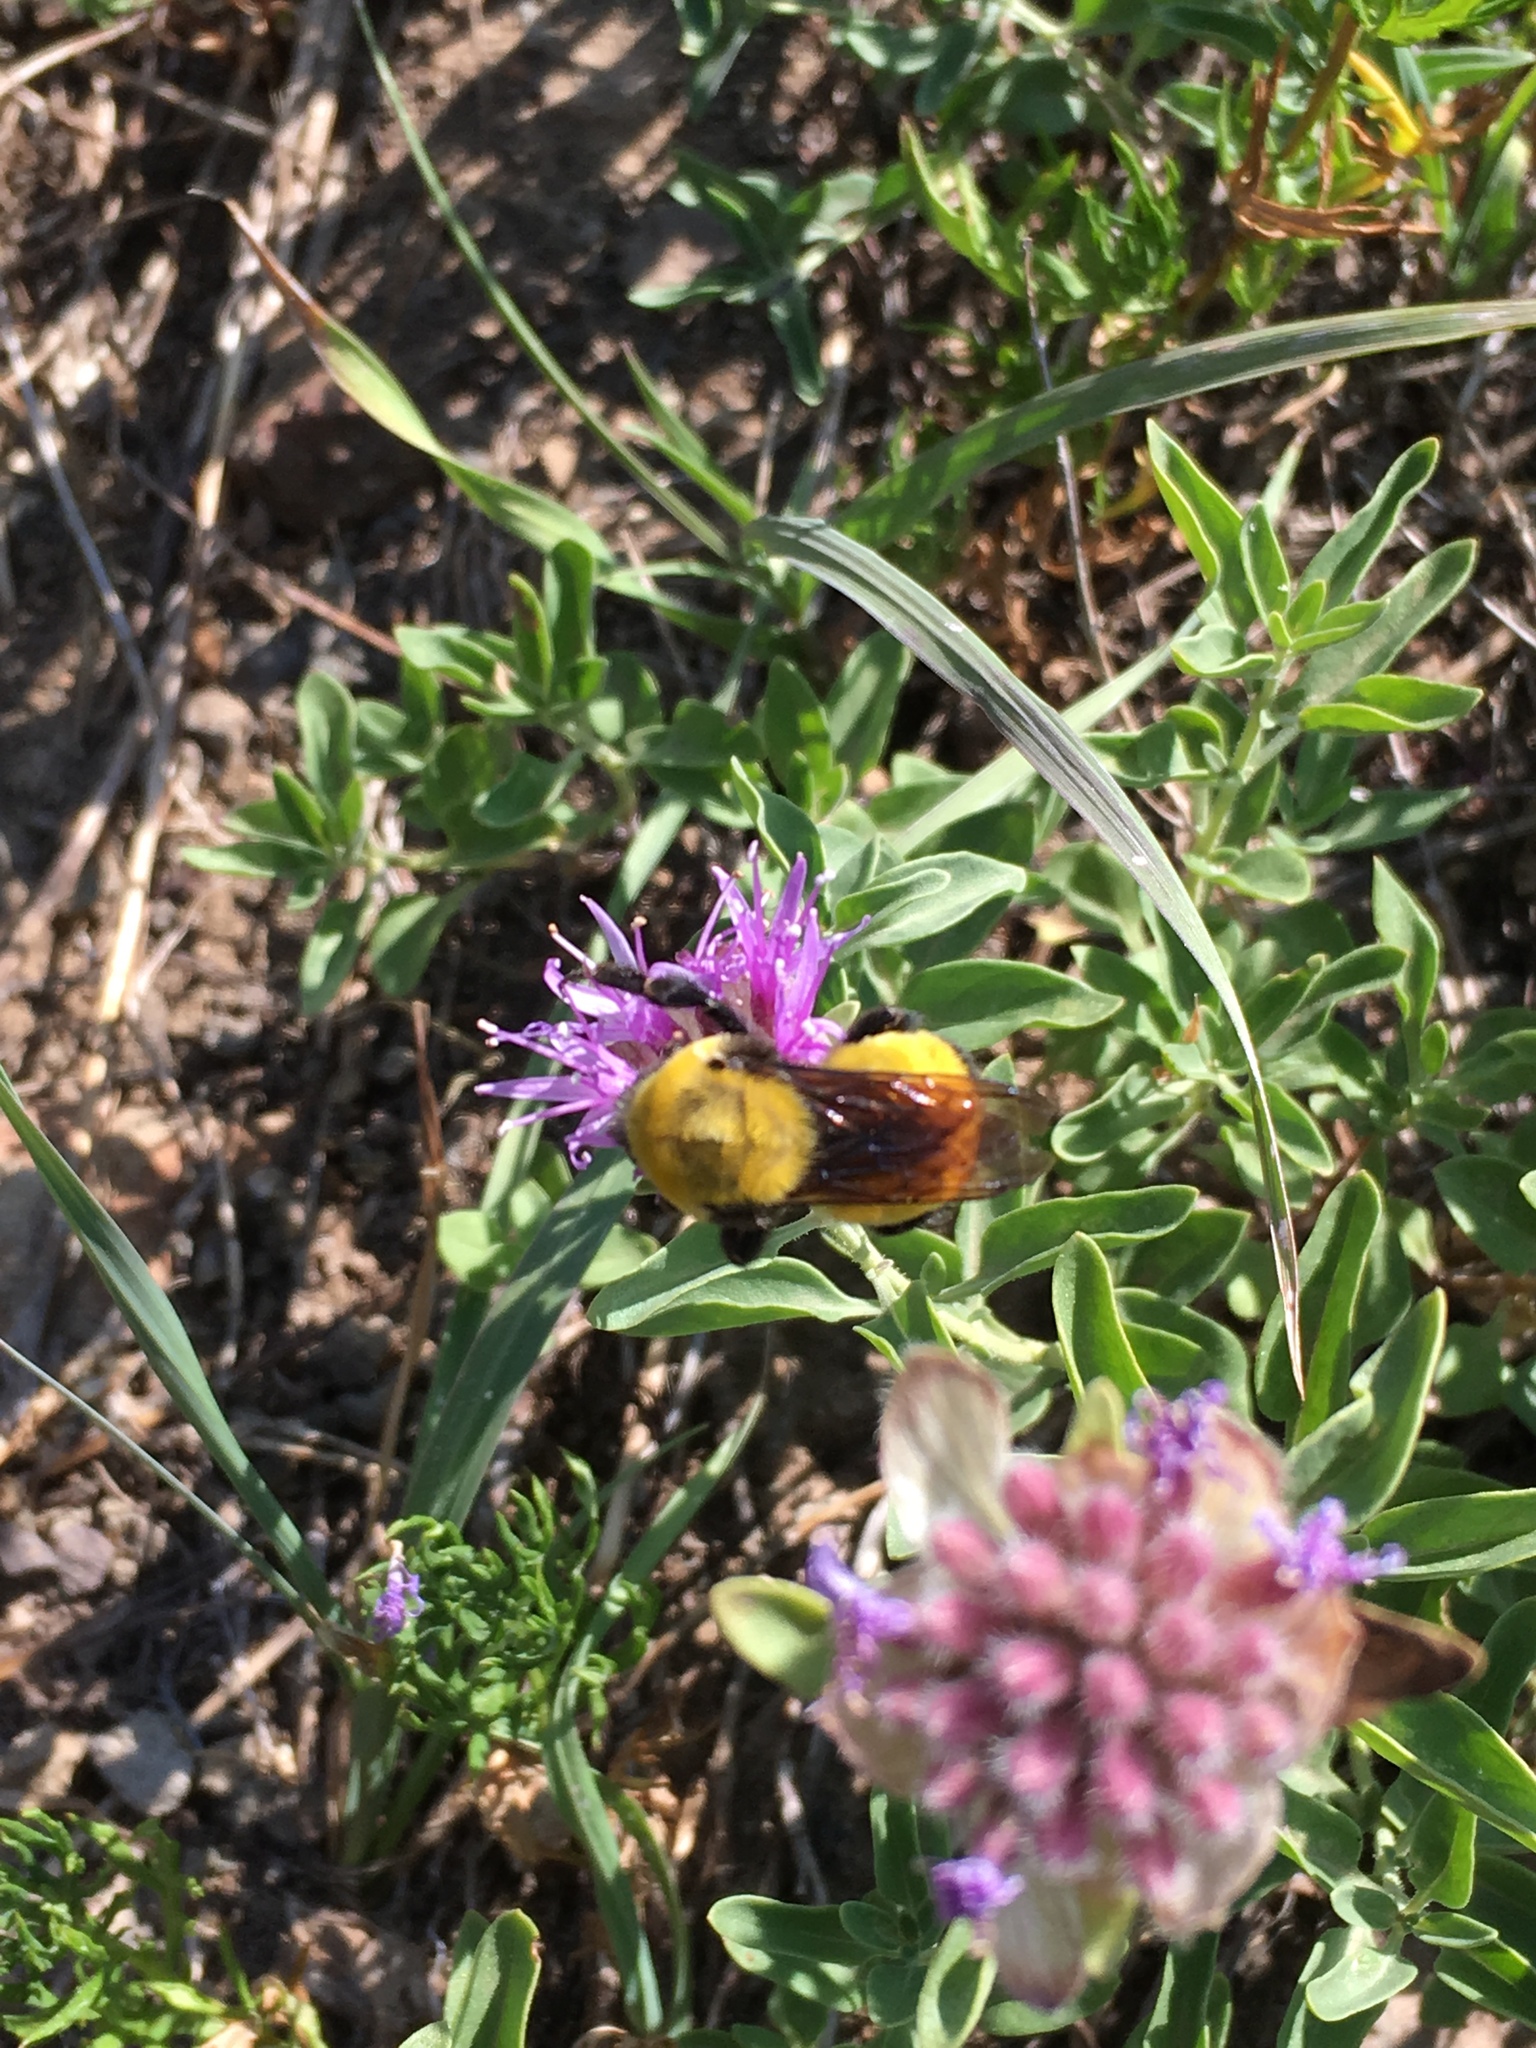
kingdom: Animalia
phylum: Arthropoda
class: Insecta
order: Hymenoptera
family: Apidae
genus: Bombus
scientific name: Bombus morrisoni
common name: Morrison bumble bee
